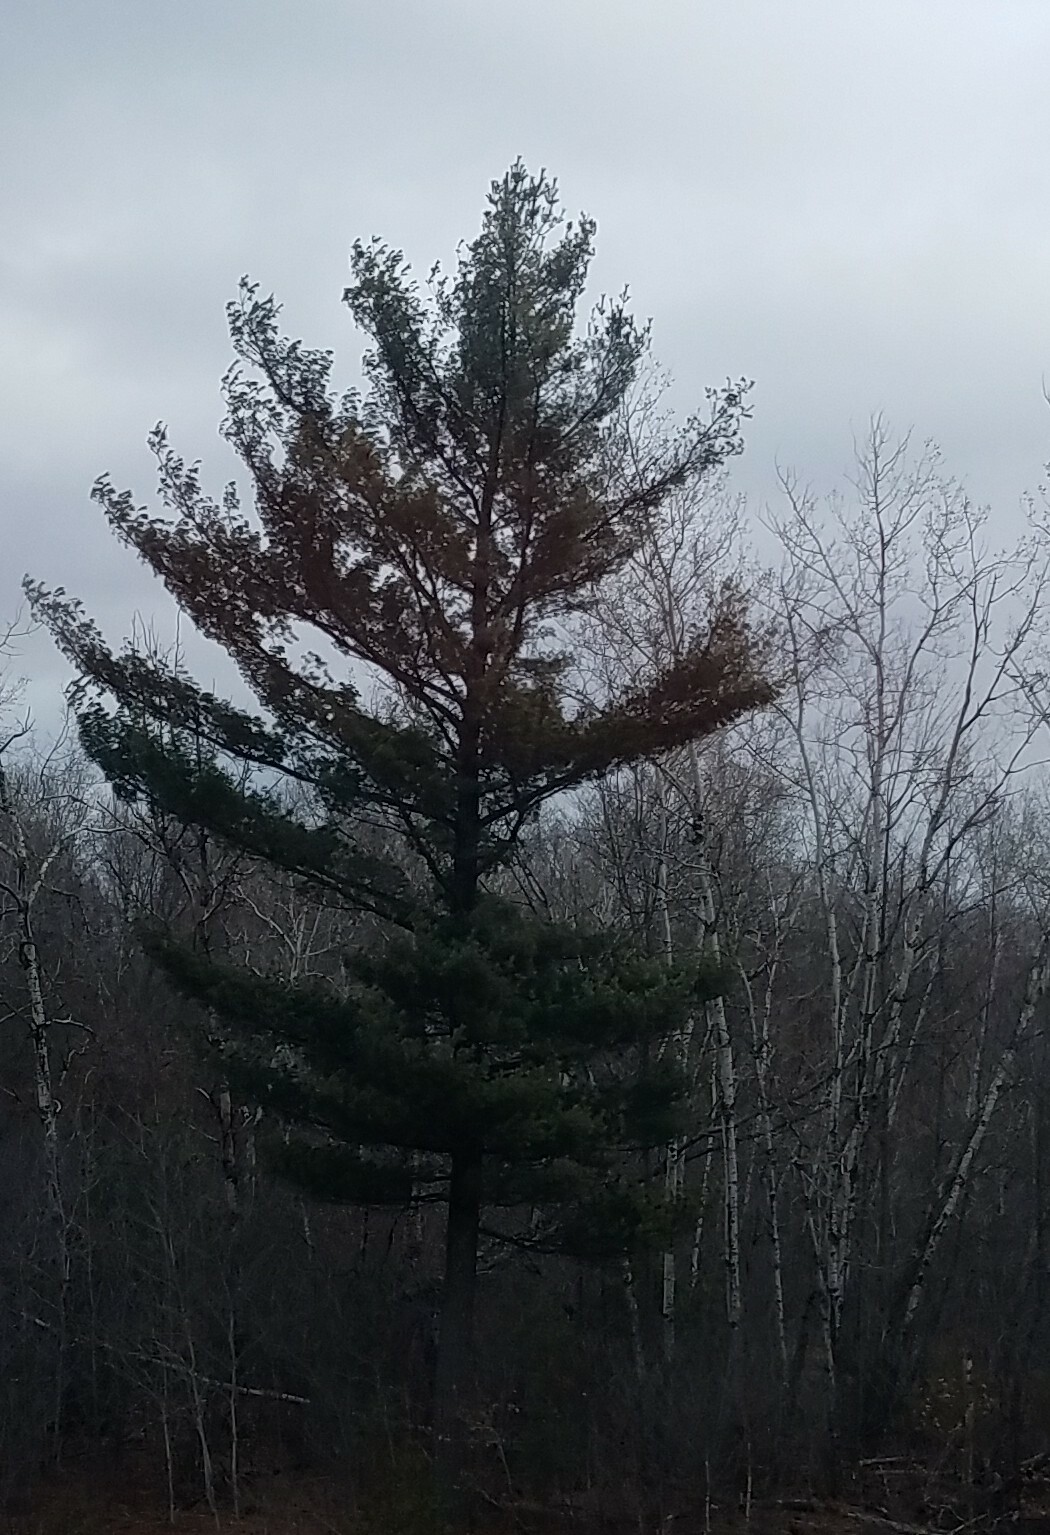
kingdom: Plantae
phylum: Tracheophyta
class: Pinopsida
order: Pinales
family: Pinaceae
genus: Pinus
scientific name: Pinus strobus
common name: Weymouth pine
